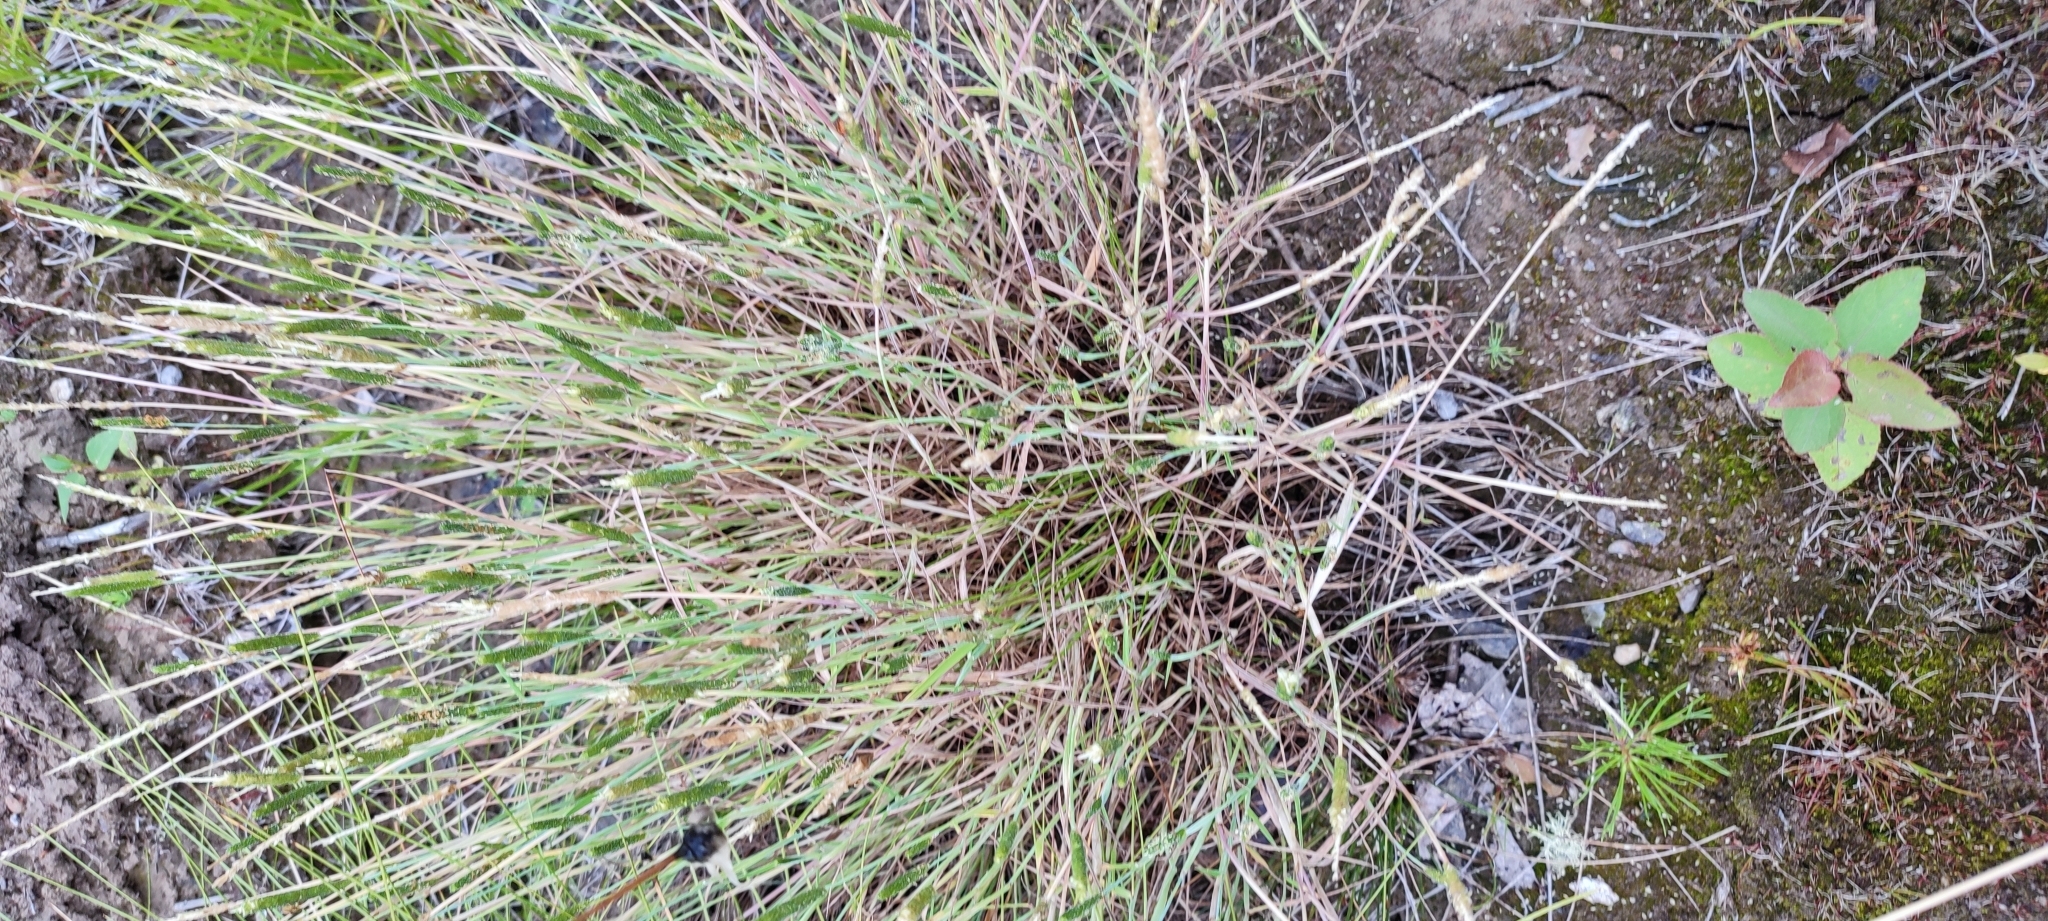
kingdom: Plantae
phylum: Tracheophyta
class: Liliopsida
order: Poales
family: Poaceae
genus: Alopecurus
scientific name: Alopecurus aequalis
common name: Orange foxtail
